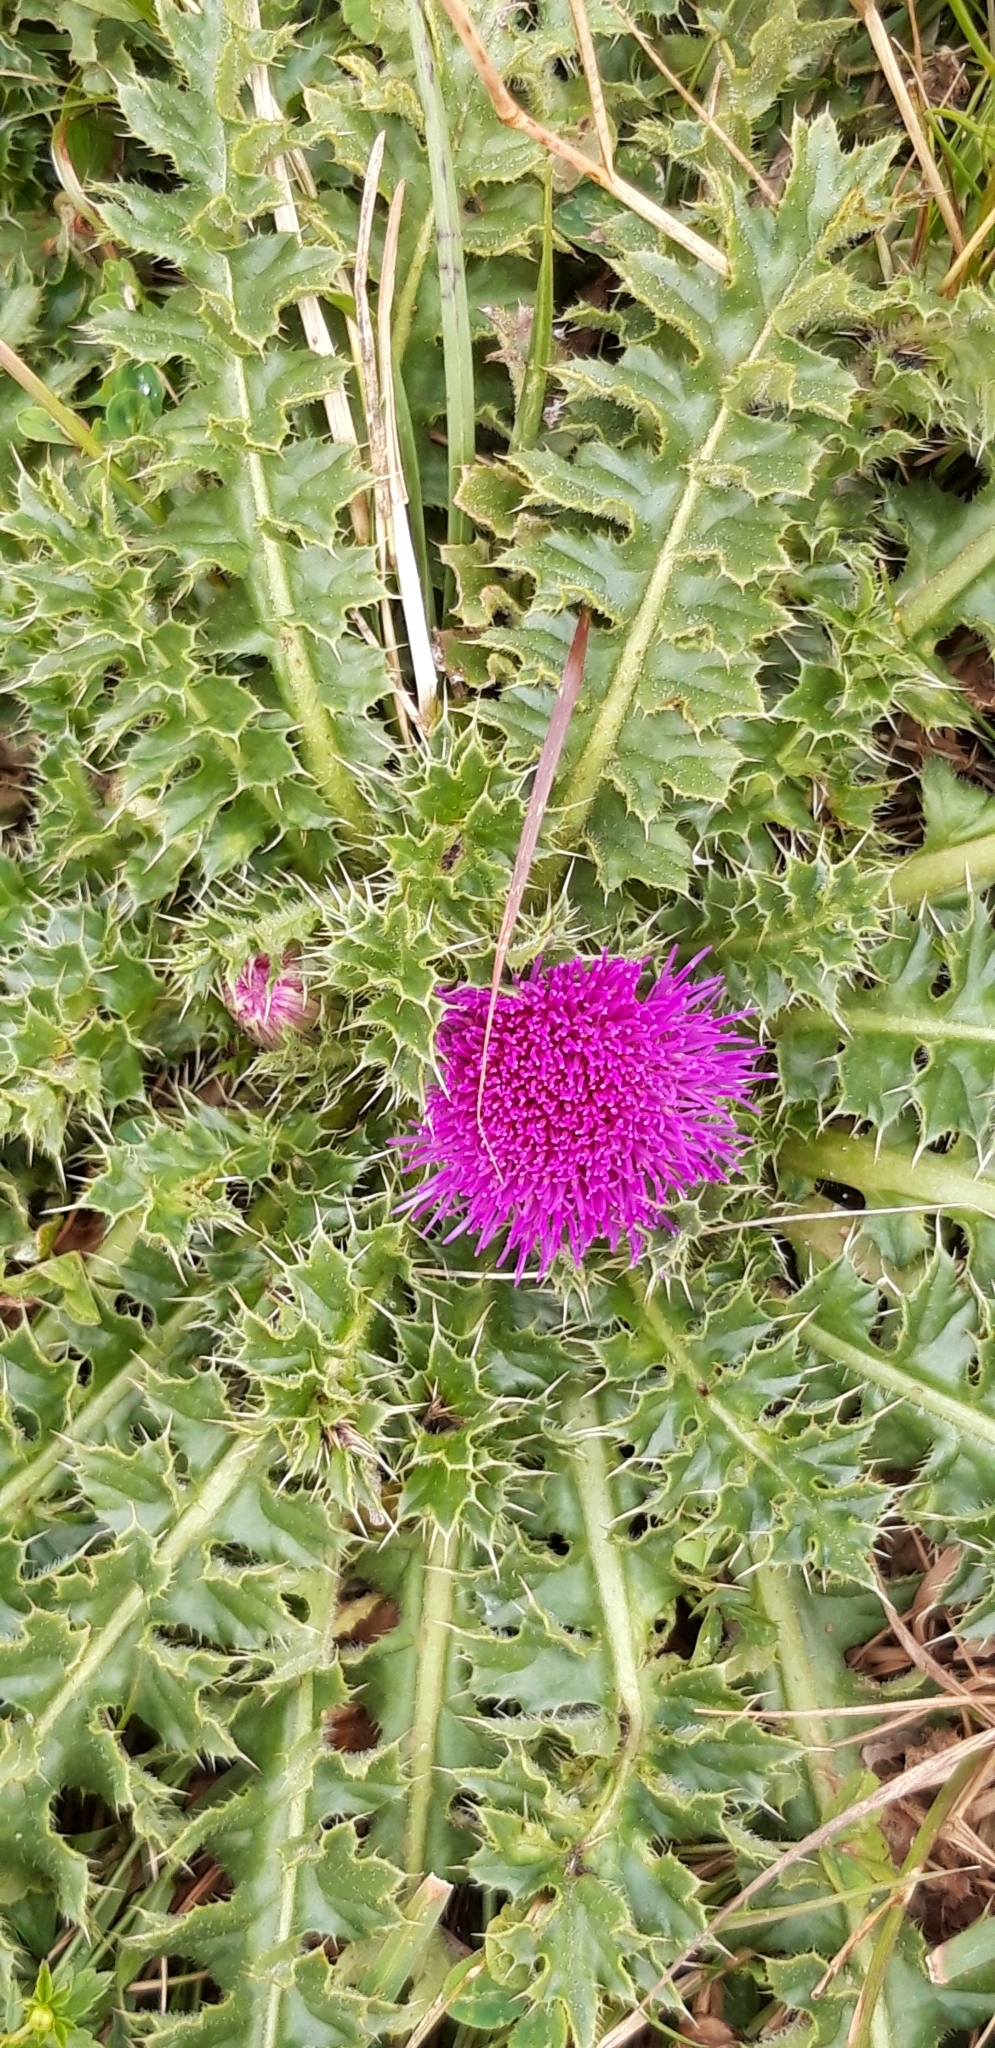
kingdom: Plantae
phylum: Tracheophyta
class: Magnoliopsida
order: Asterales
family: Asteraceae
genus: Cirsium
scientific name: Cirsium acaulon
